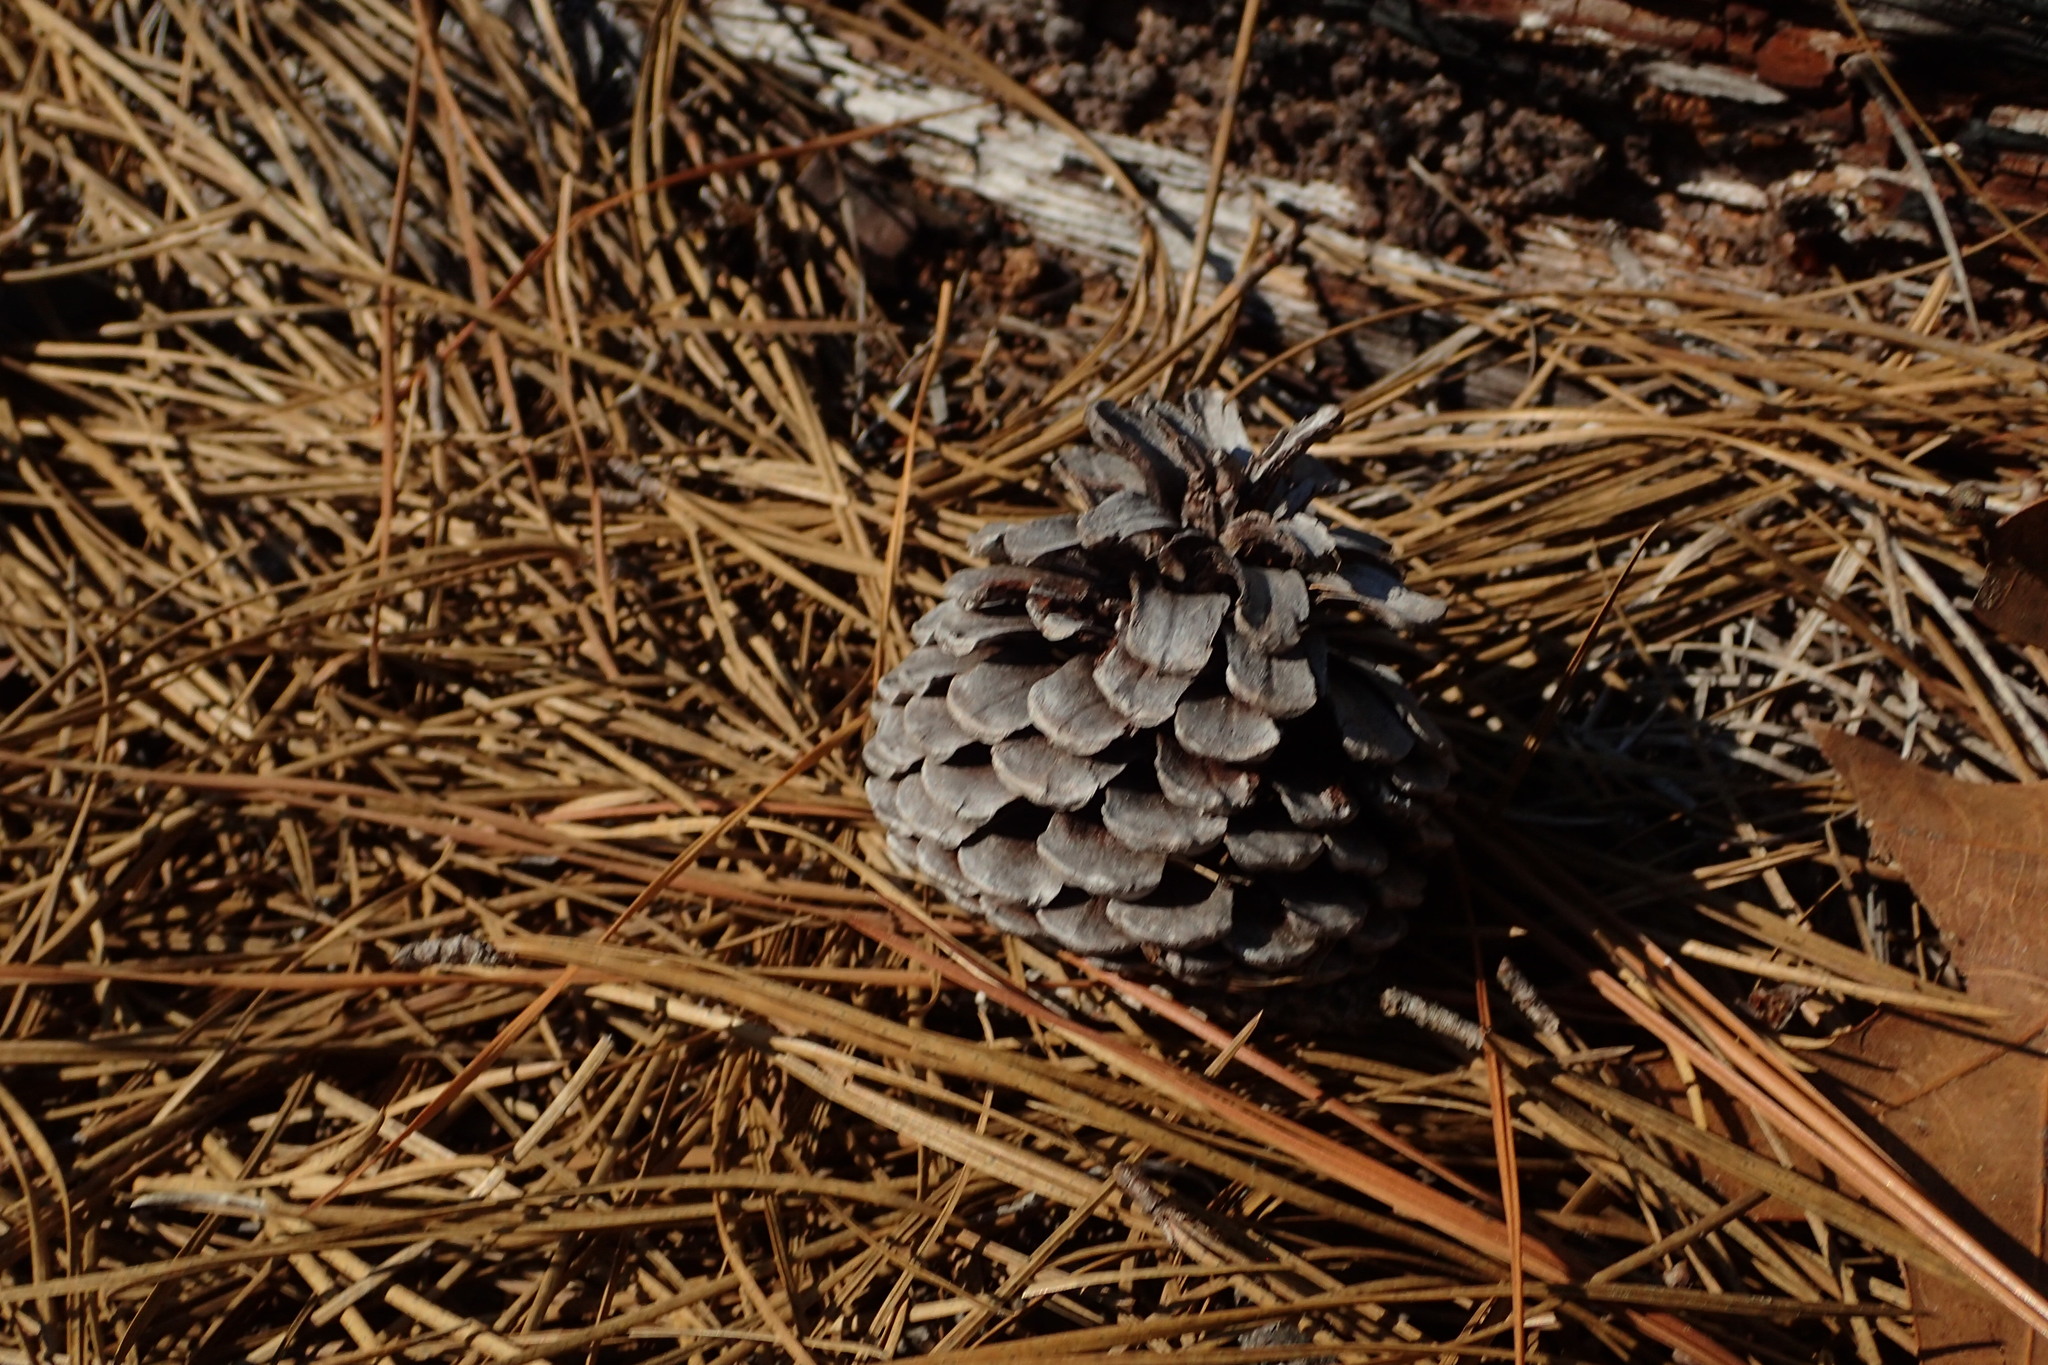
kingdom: Plantae
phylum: Tracheophyta
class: Pinopsida
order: Pinales
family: Pinaceae
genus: Pinus
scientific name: Pinus serotina
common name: Marsh pine
